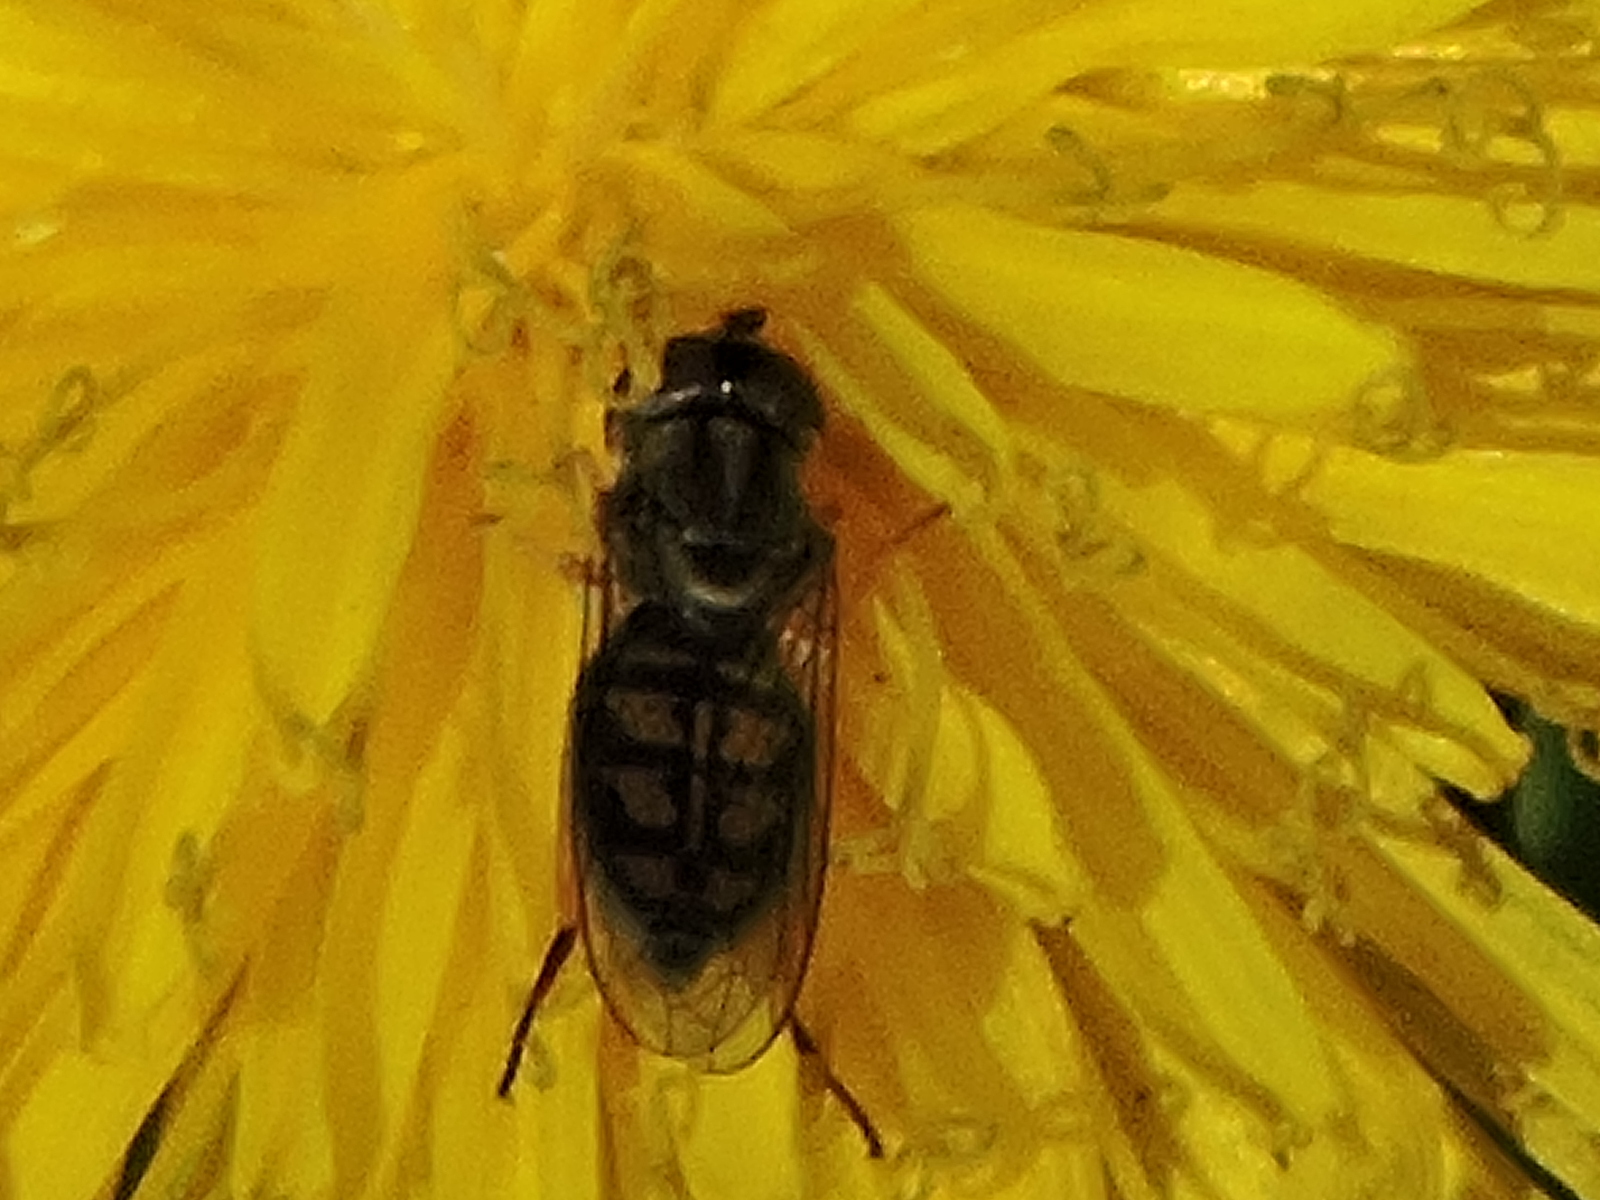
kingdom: Animalia
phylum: Arthropoda
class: Insecta
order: Diptera
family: Syrphidae
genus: Toxomerus
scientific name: Toxomerus marginatus
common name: Syrphid fly
